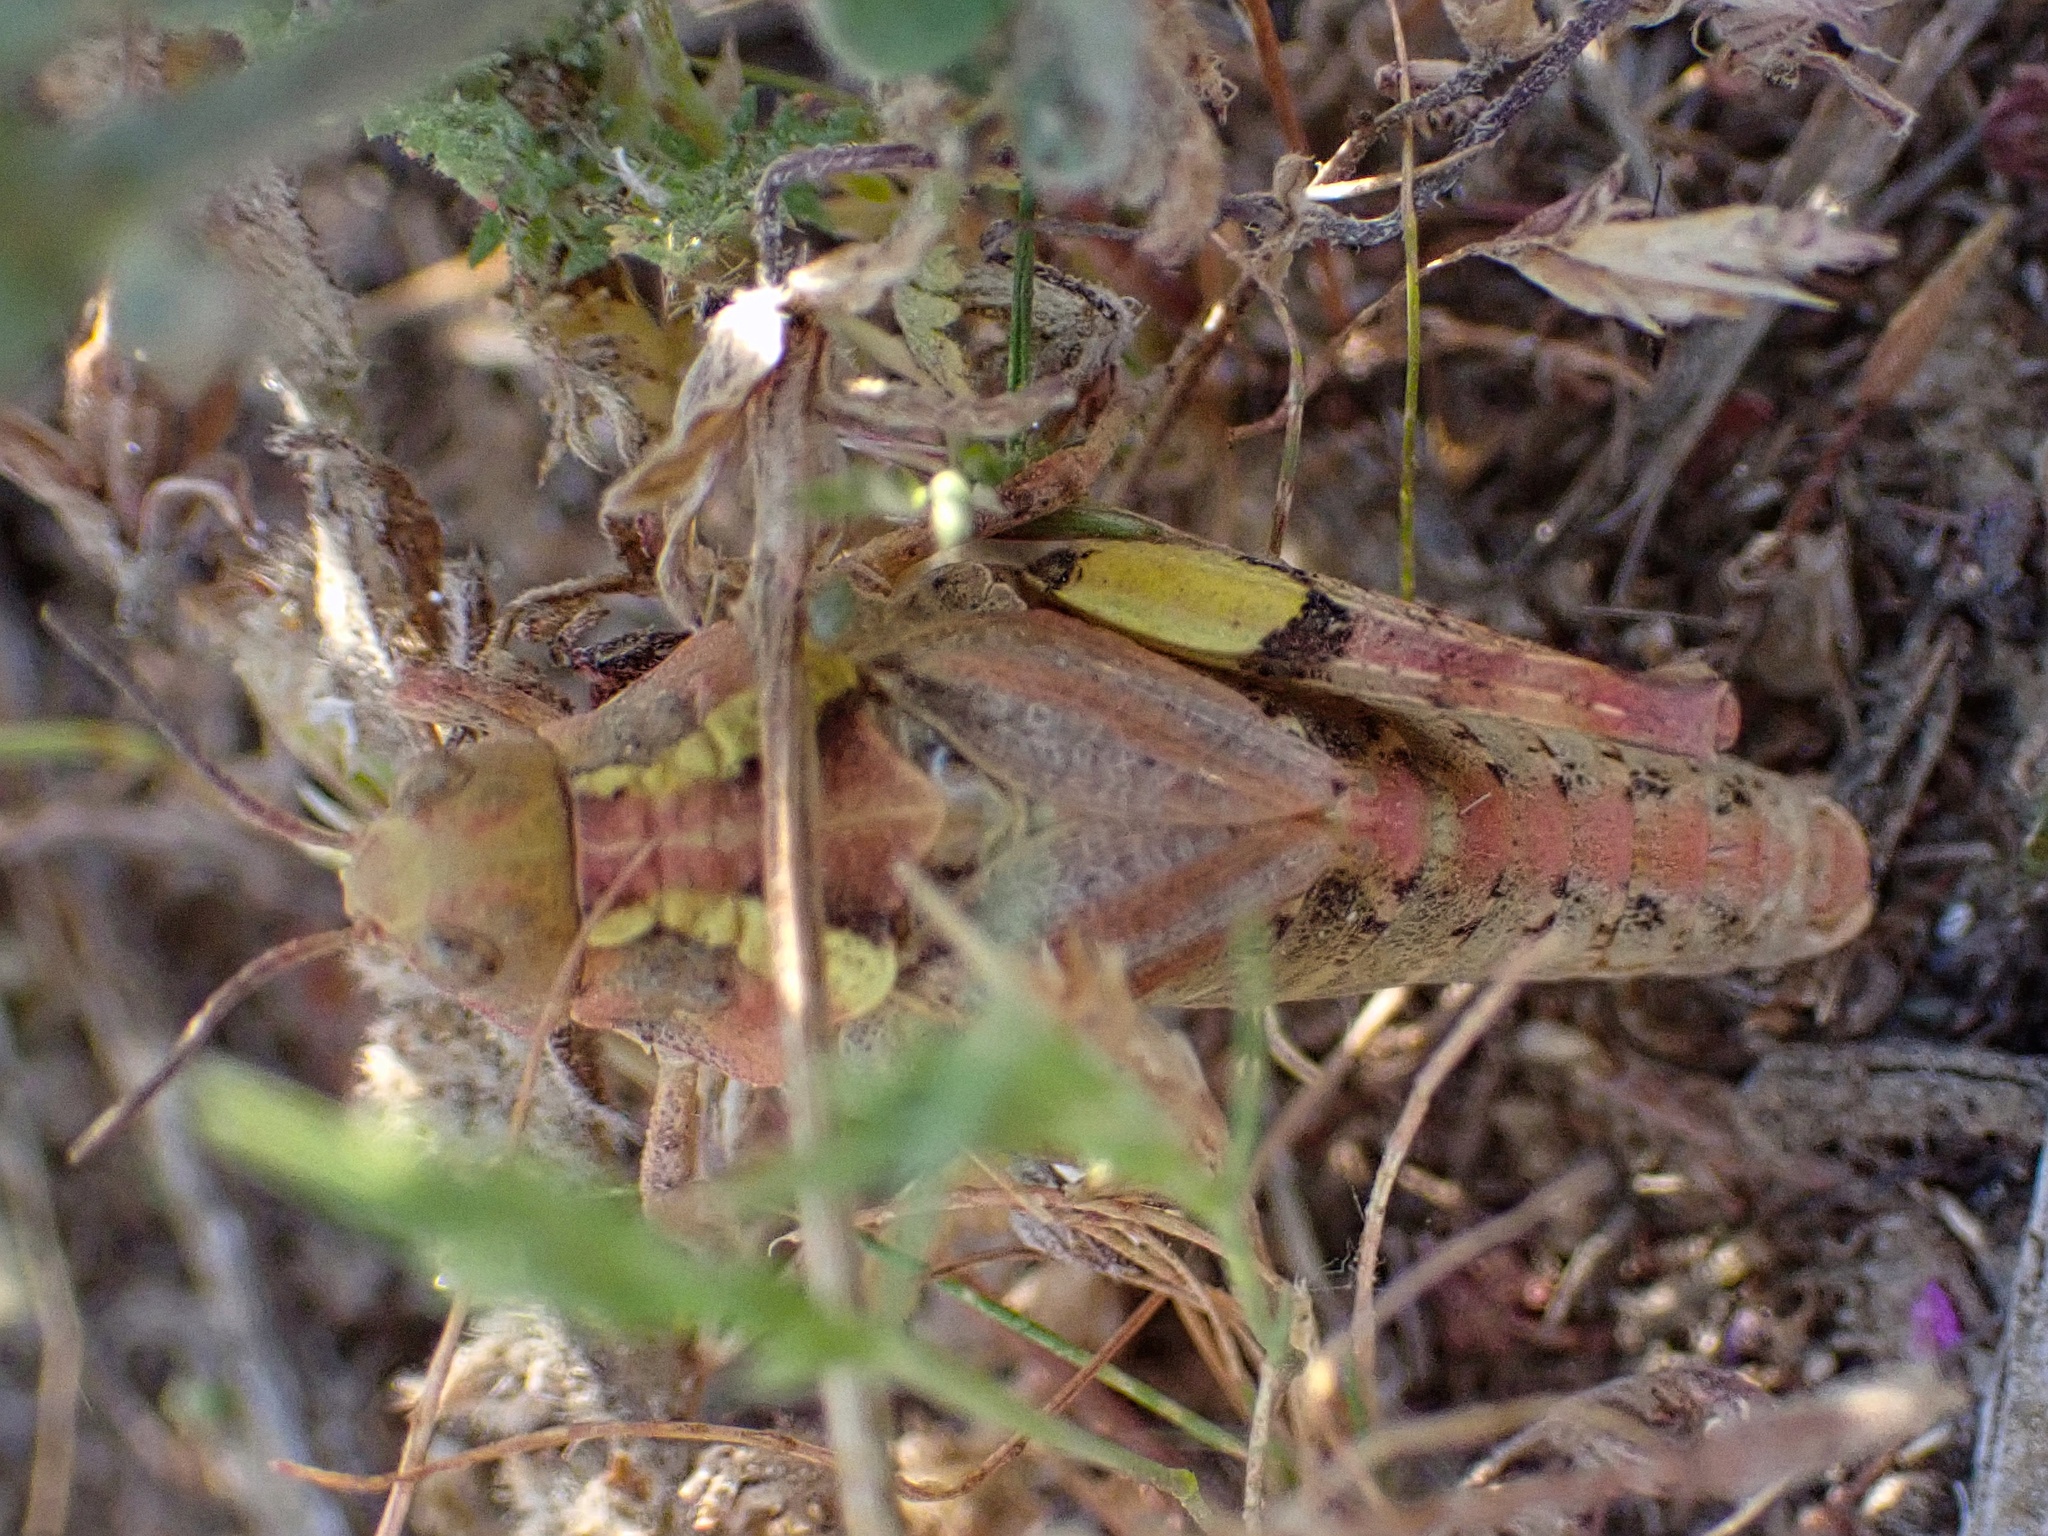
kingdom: Animalia
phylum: Arthropoda
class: Insecta
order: Orthoptera
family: Acrididae
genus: Esselenia
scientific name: Esselenia vanduzeei
